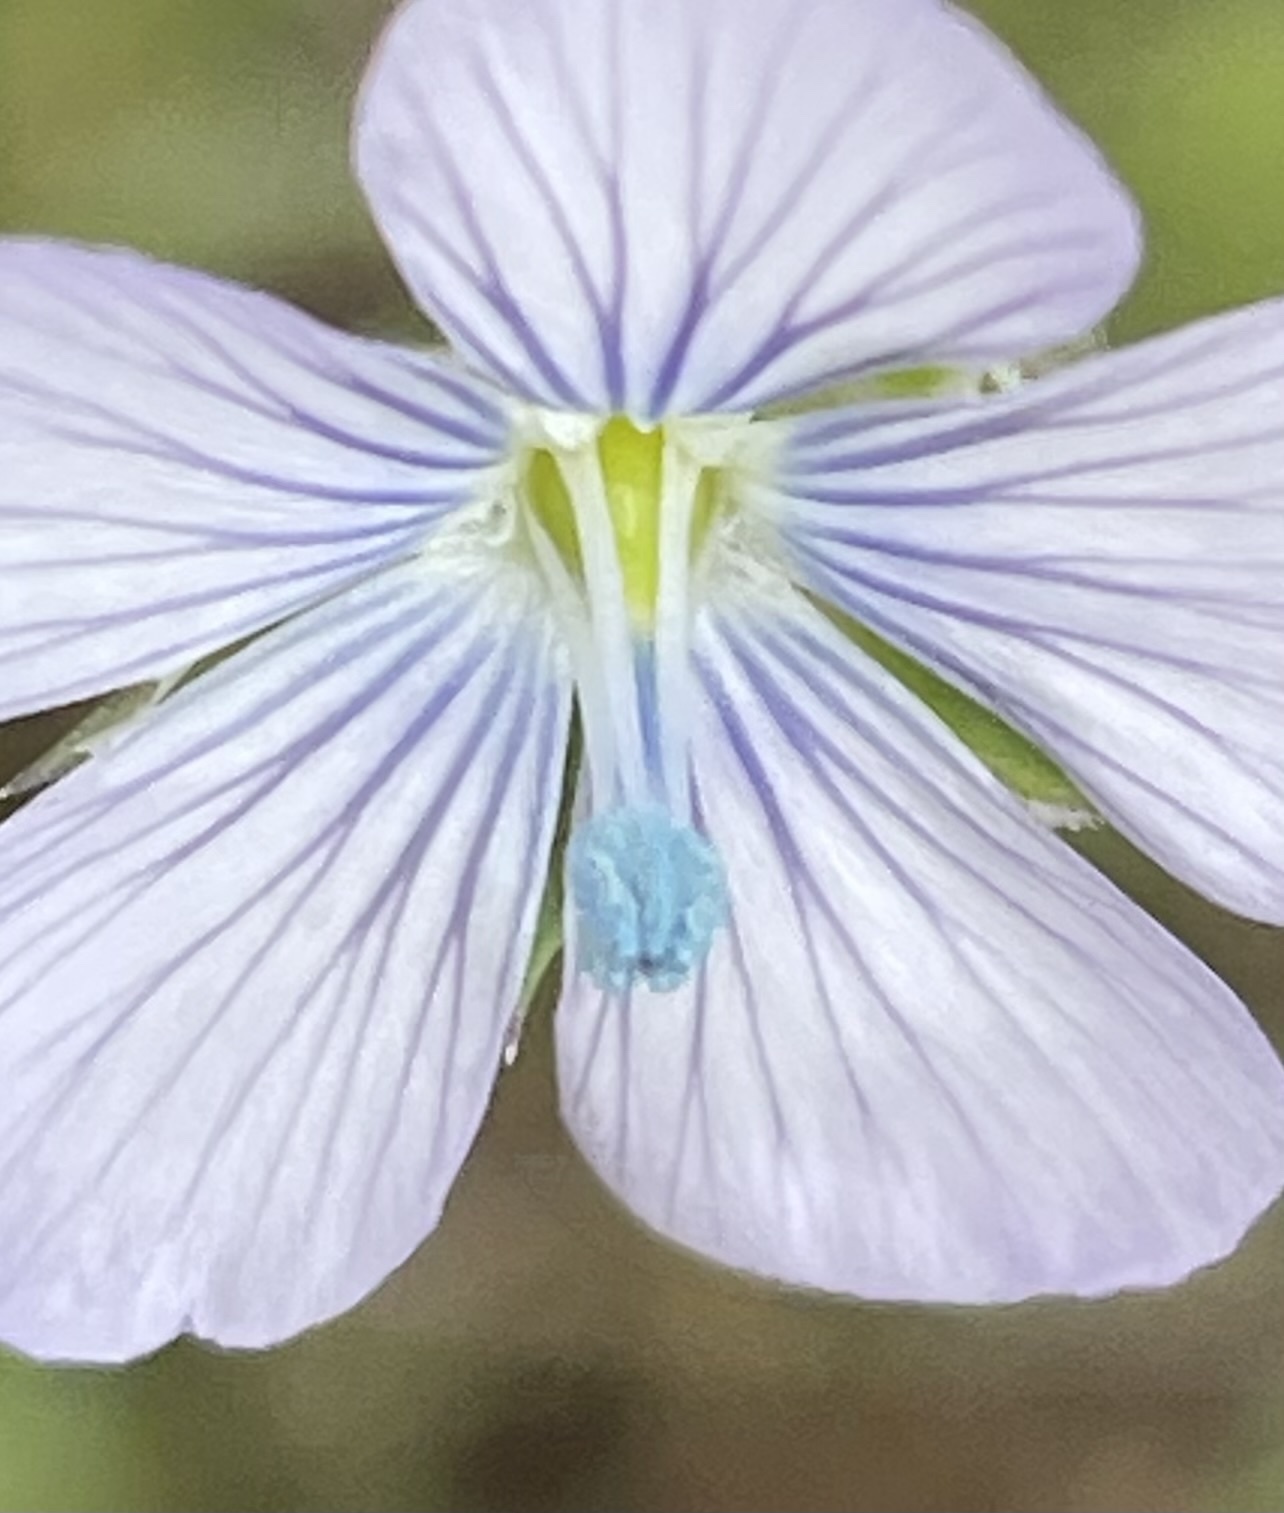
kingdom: Plantae
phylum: Tracheophyta
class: Magnoliopsida
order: Malpighiales
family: Linaceae
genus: Linum
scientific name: Linum bienne
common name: Pale flax
